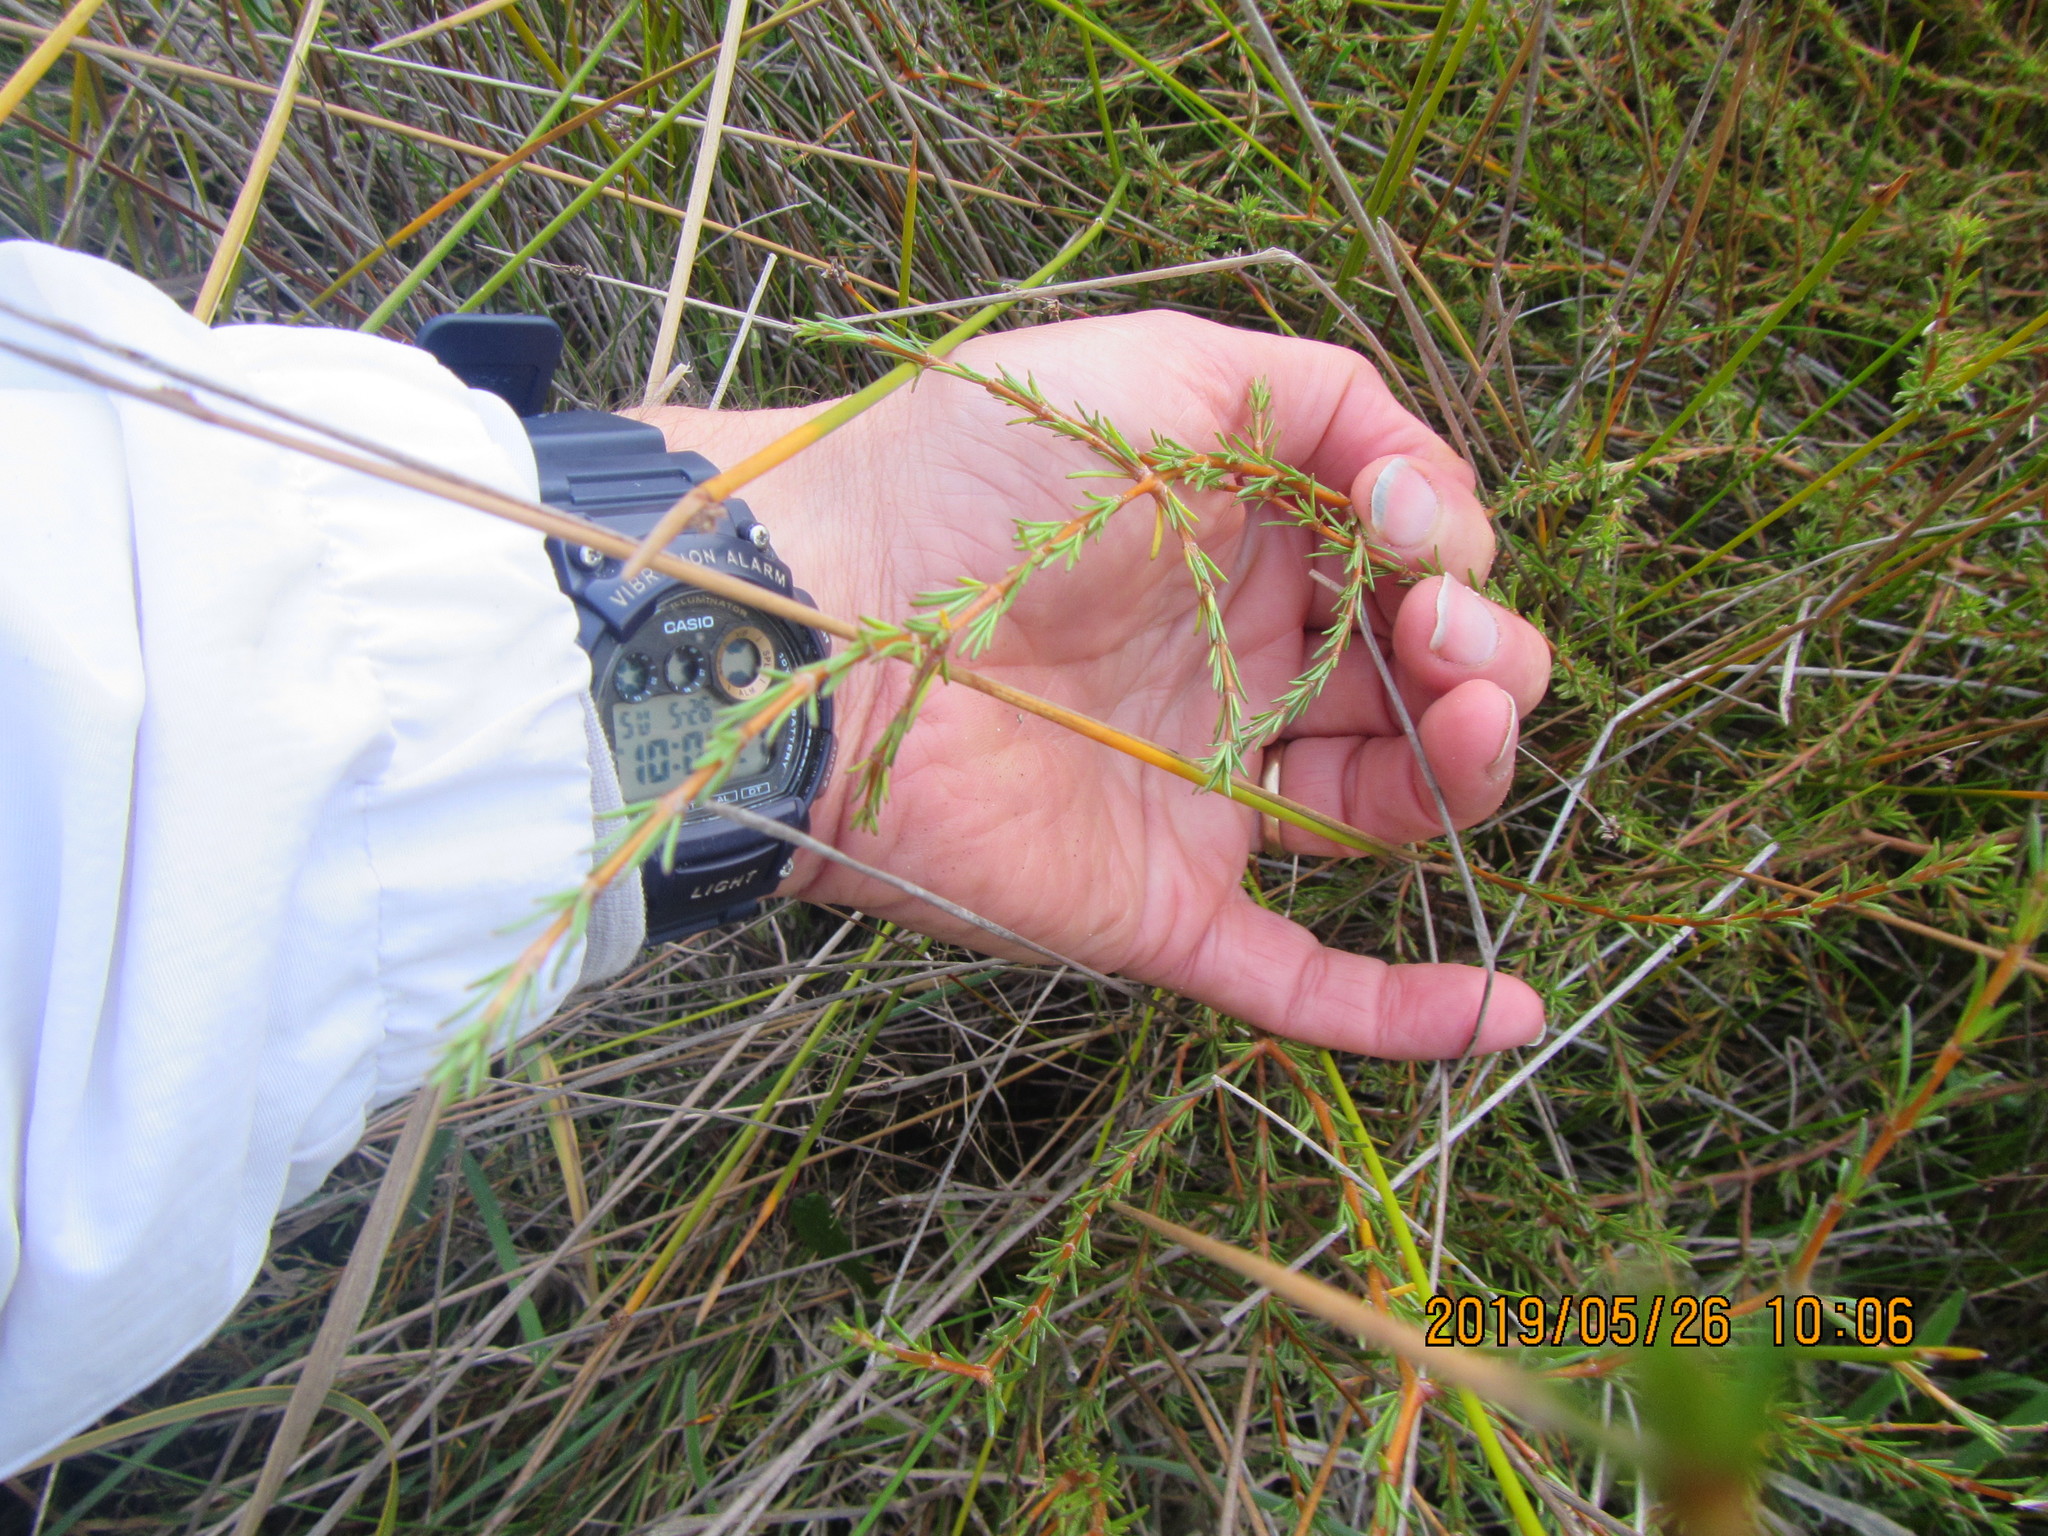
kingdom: Plantae
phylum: Tracheophyta
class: Magnoliopsida
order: Gentianales
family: Rubiaceae
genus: Coprosma
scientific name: Coprosma acerosa
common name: Sand coprosma
